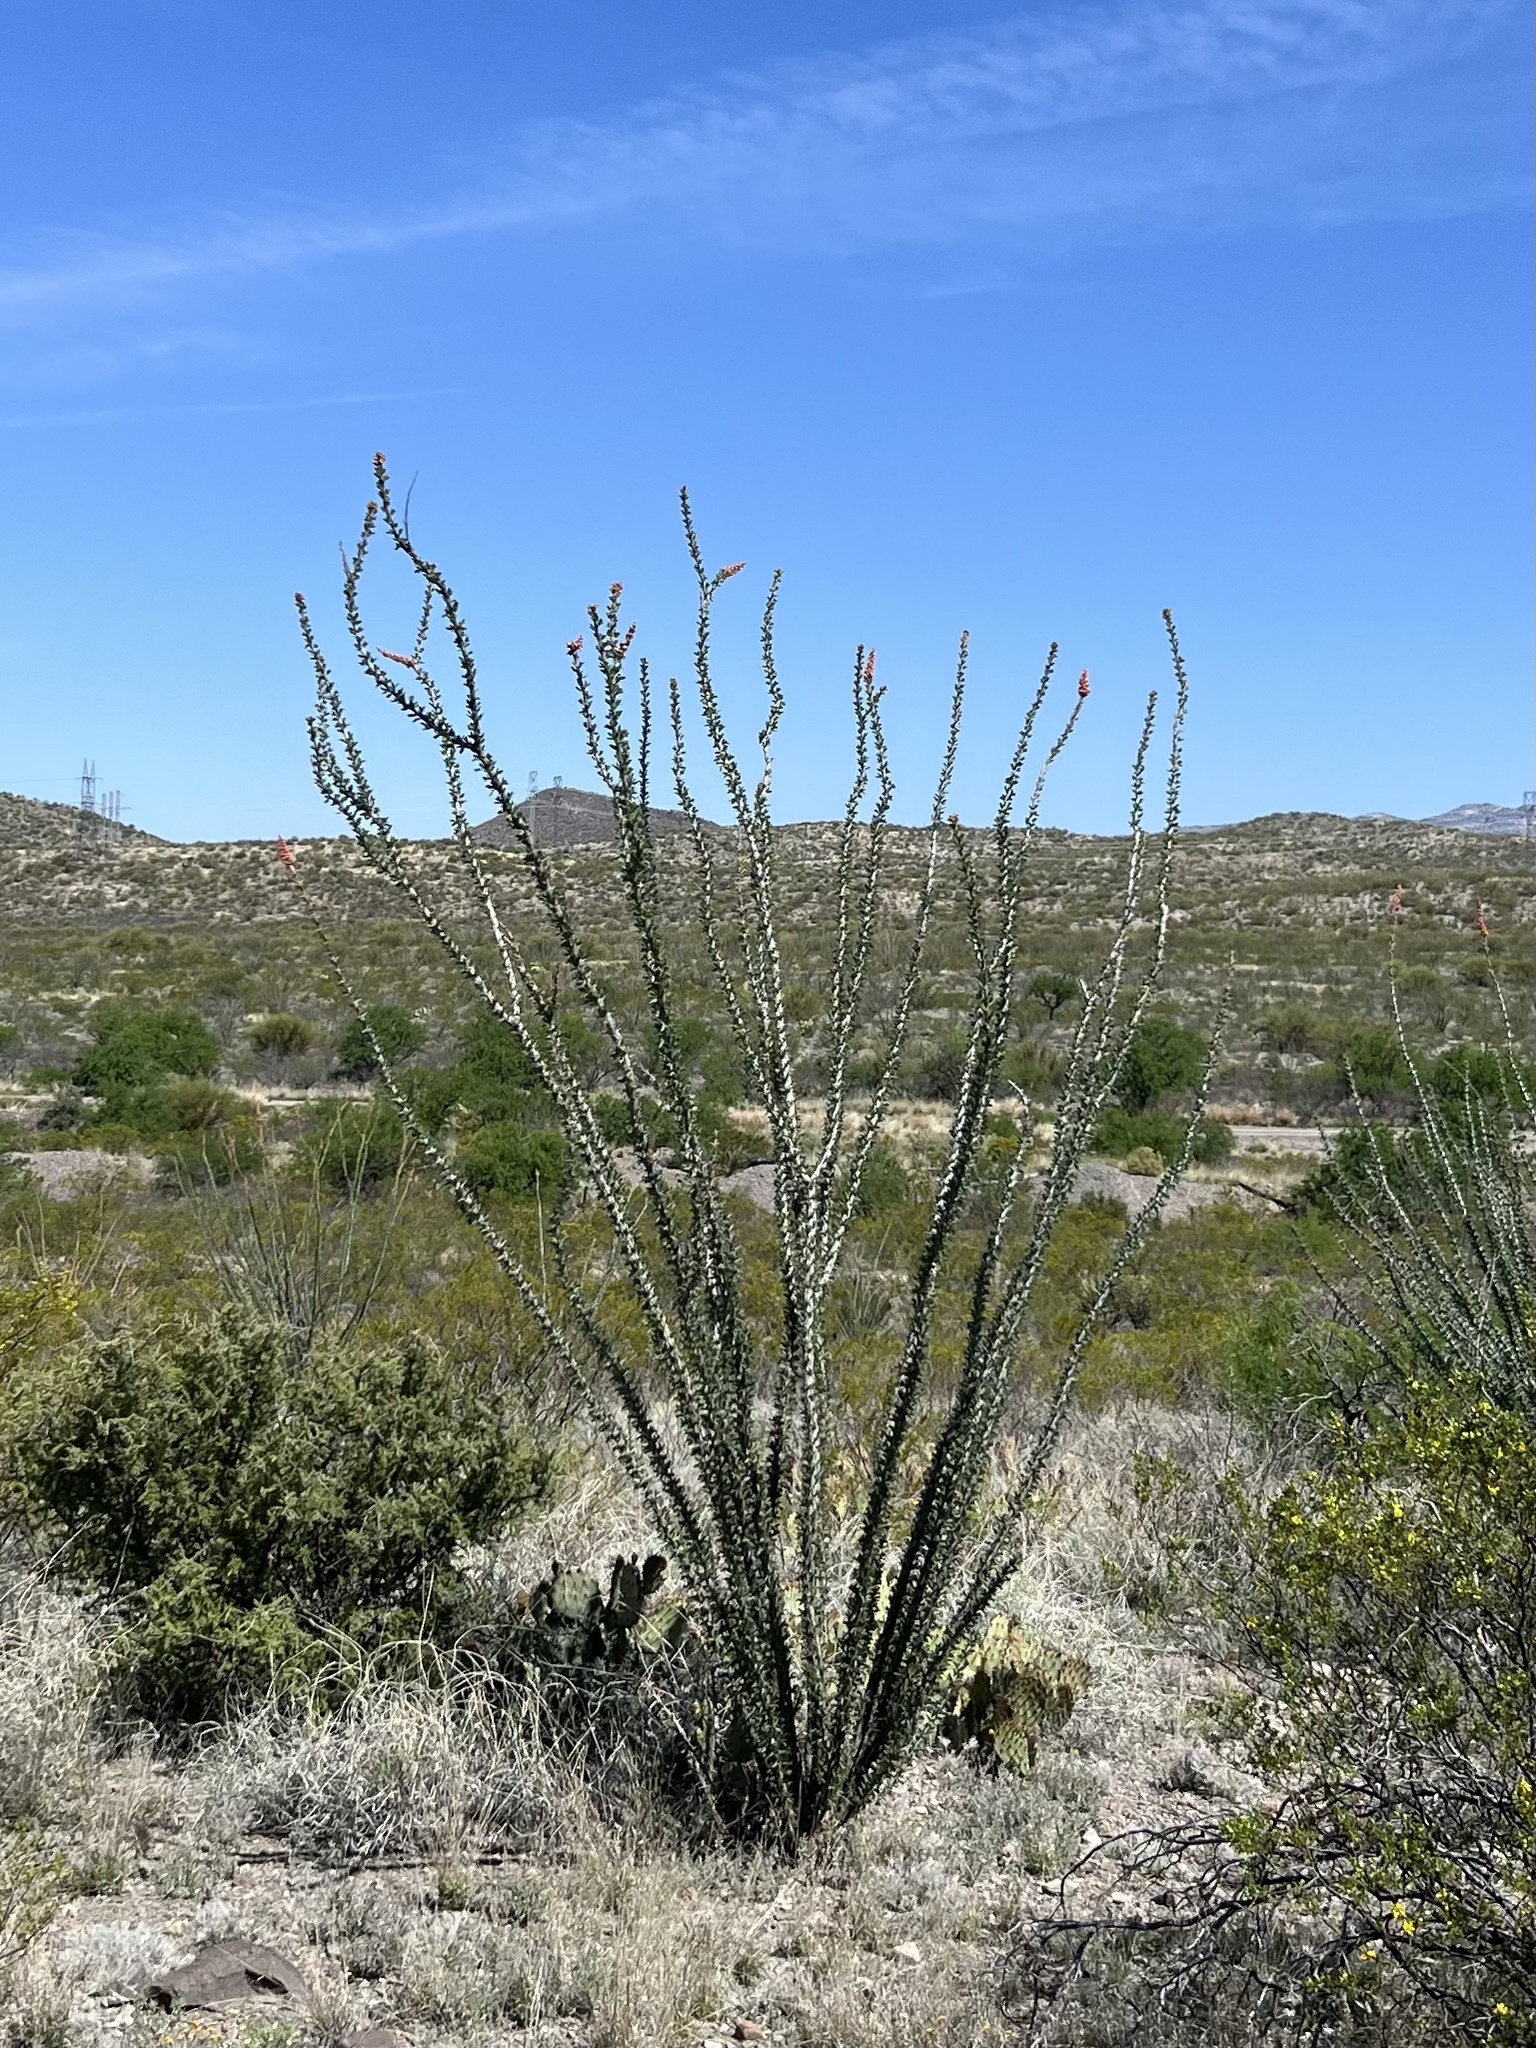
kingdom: Plantae
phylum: Tracheophyta
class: Magnoliopsida
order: Ericales
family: Fouquieriaceae
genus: Fouquieria
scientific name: Fouquieria splendens
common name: Vine-cactus
